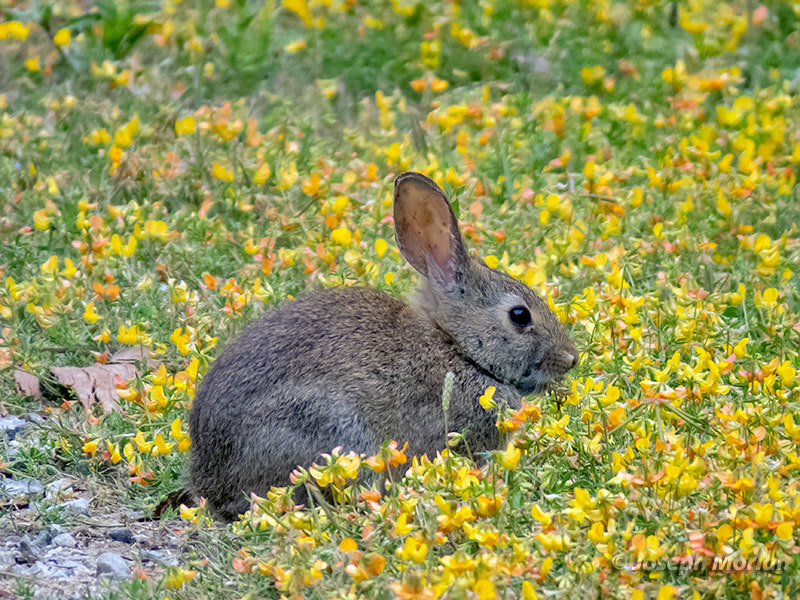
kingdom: Animalia
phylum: Chordata
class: Mammalia
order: Lagomorpha
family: Leporidae
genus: Sylvilagus
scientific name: Sylvilagus bachmani
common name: Brush rabbit
